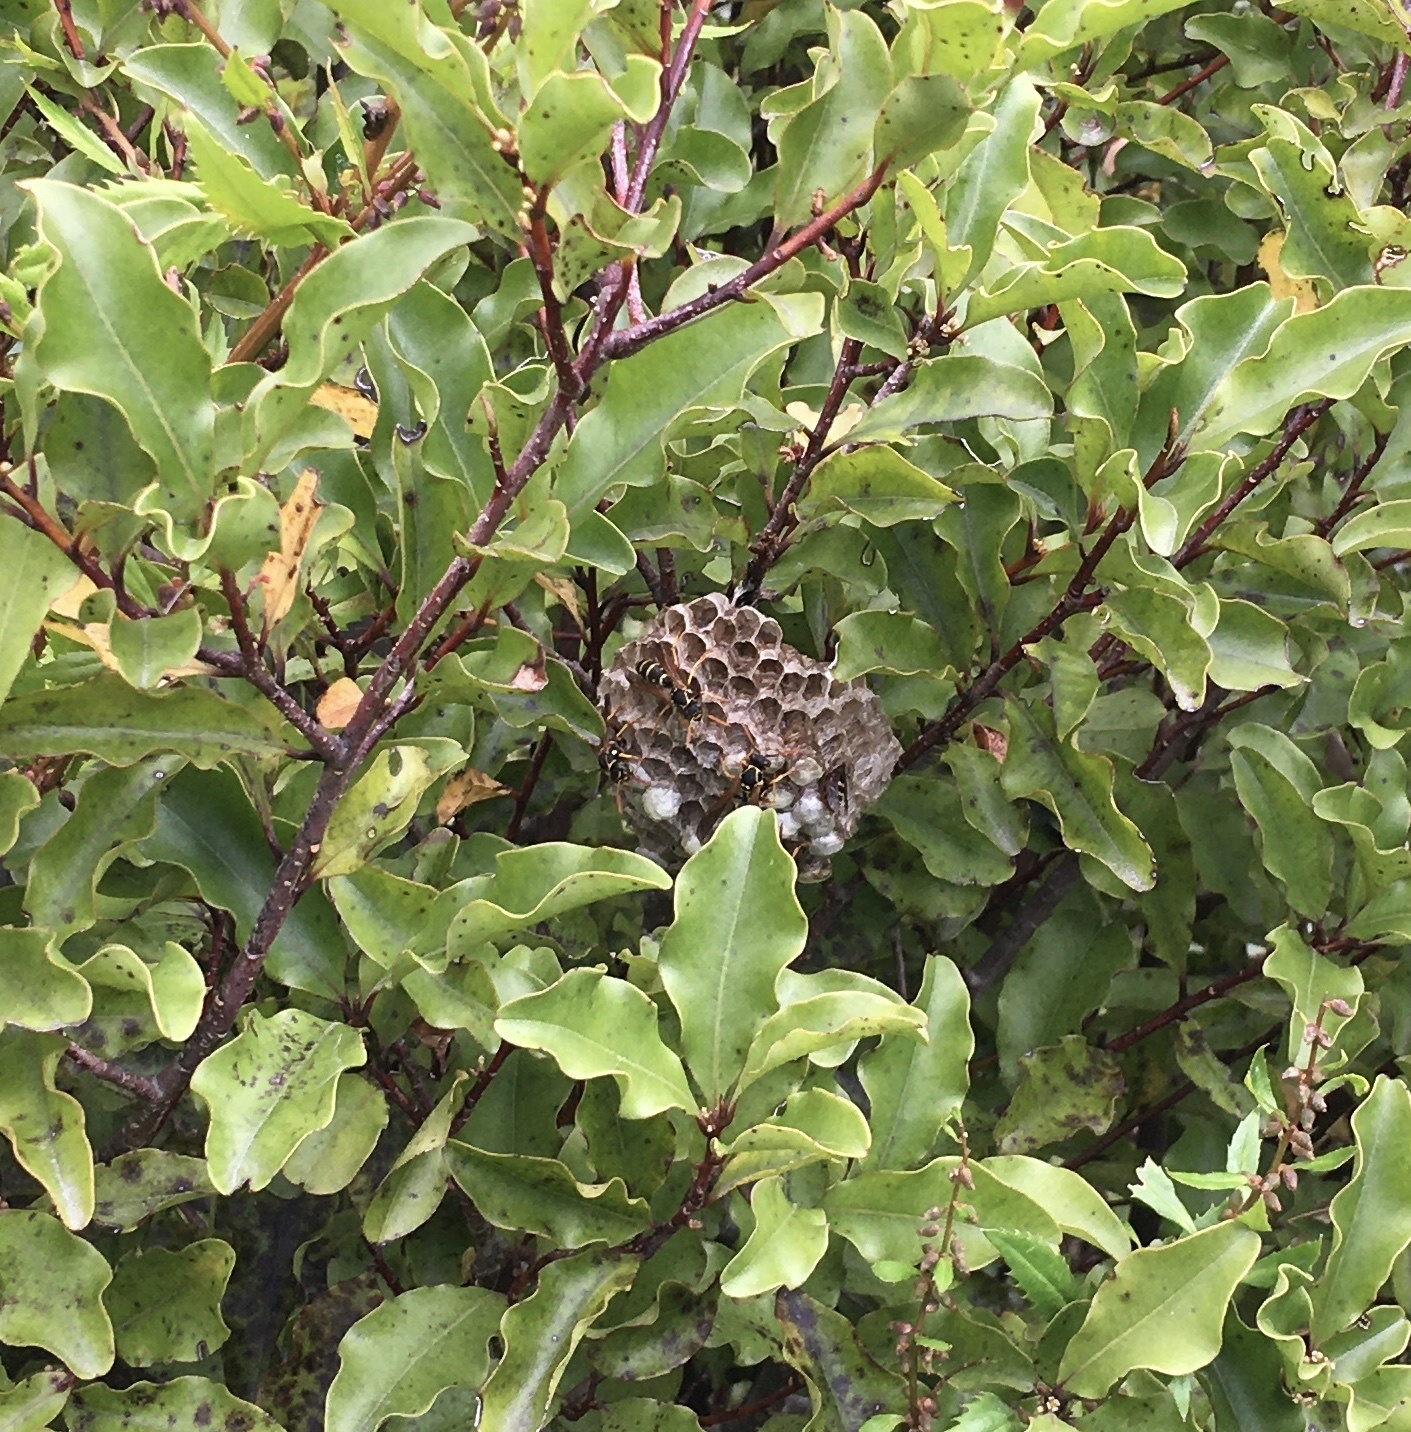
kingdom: Animalia
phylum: Arthropoda
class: Insecta
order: Hymenoptera
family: Eumenidae
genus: Polistes
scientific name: Polistes chinensis
